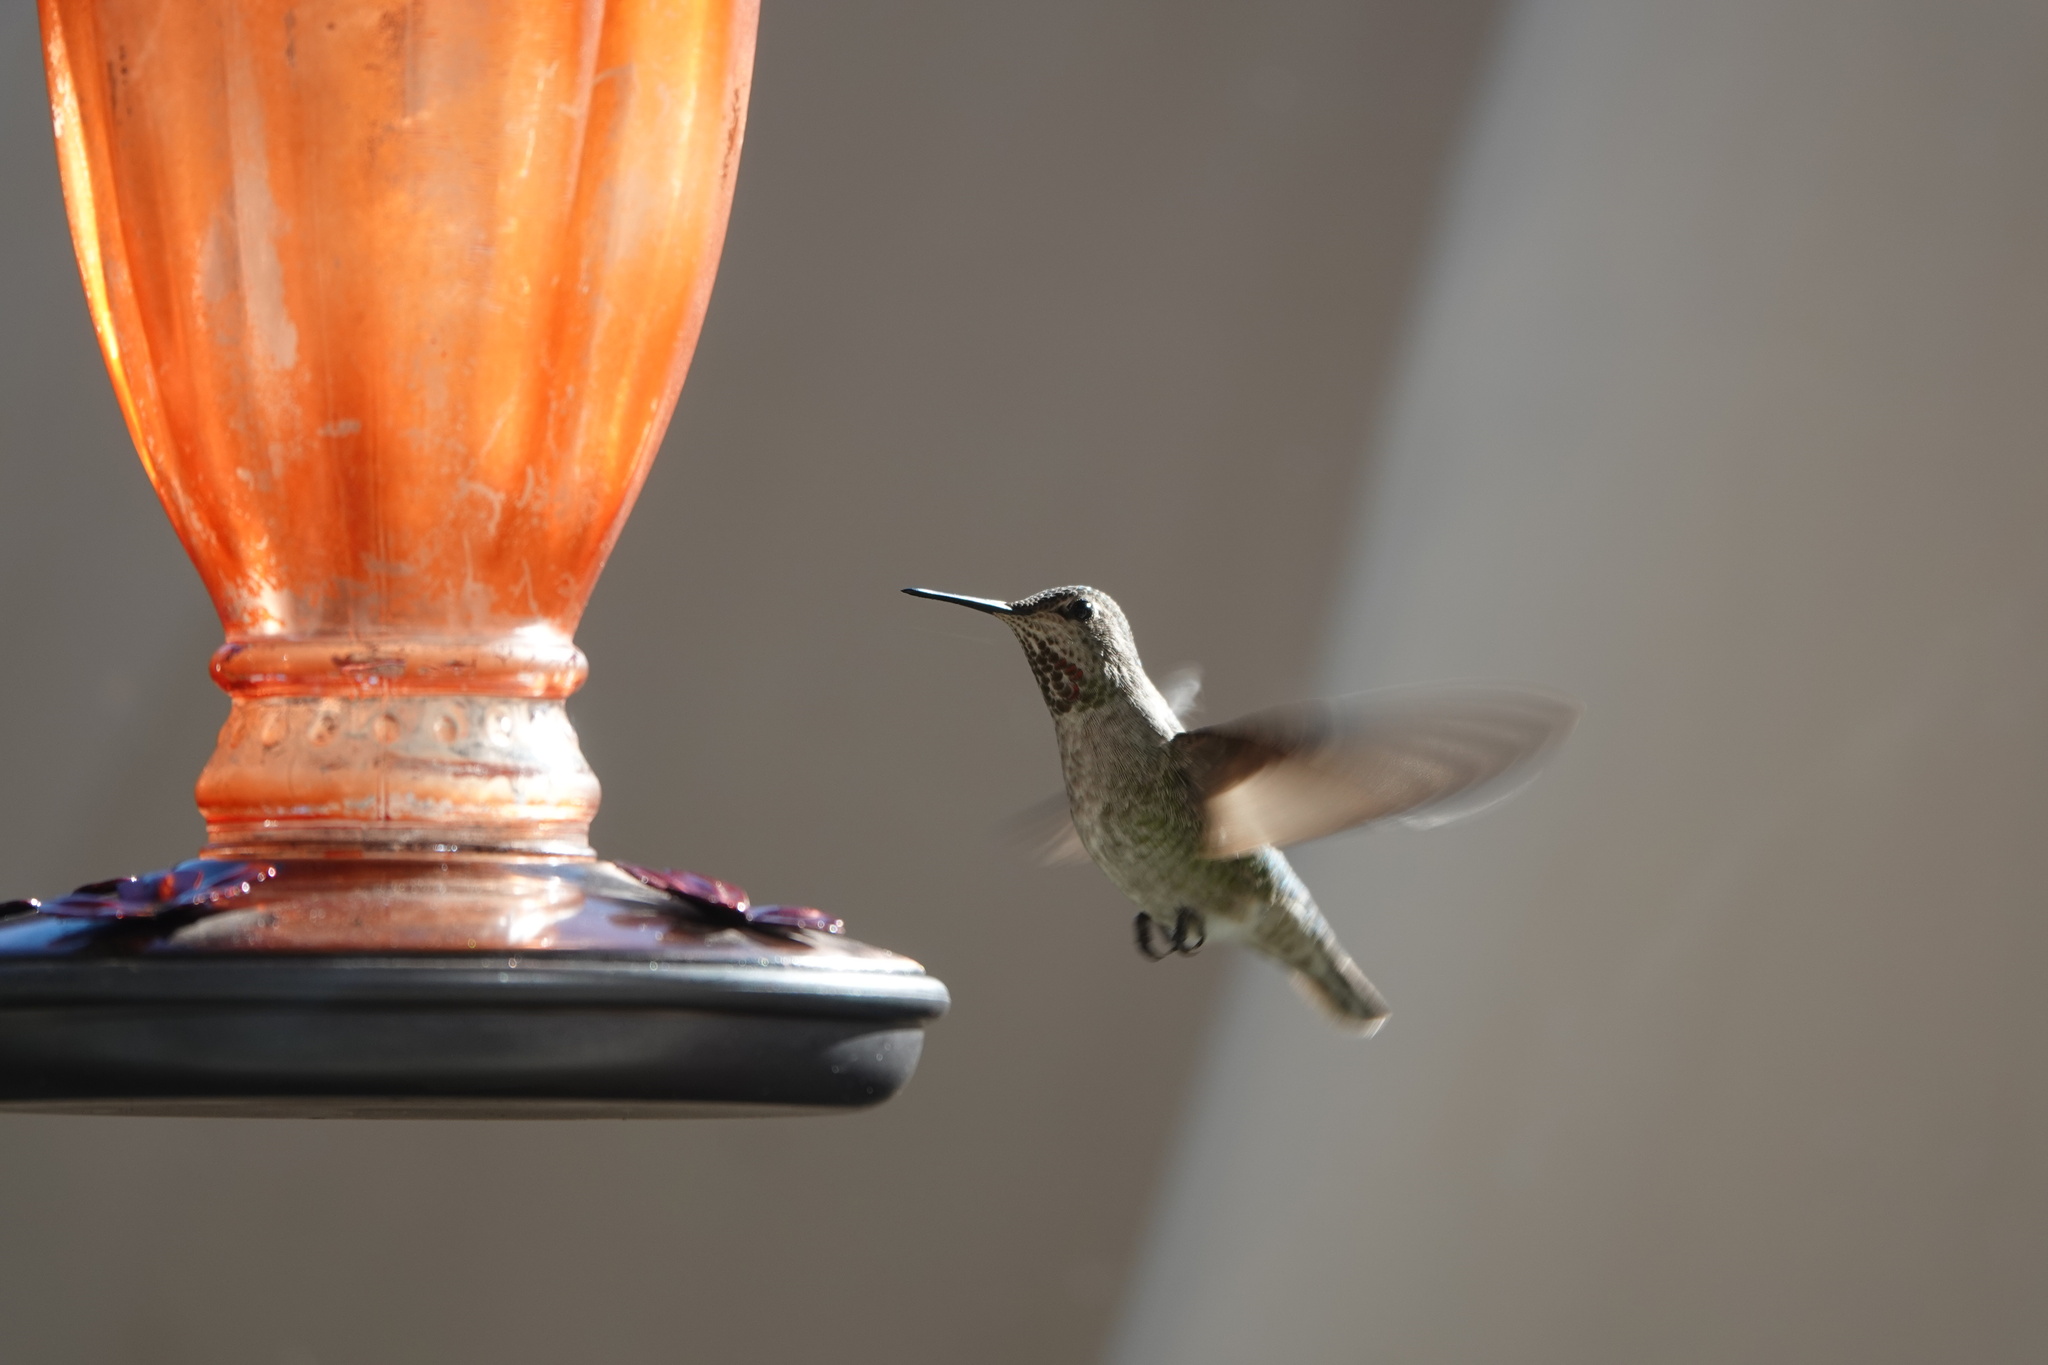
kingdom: Animalia
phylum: Chordata
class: Aves
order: Apodiformes
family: Trochilidae
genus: Calypte
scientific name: Calypte anna
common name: Anna's hummingbird
